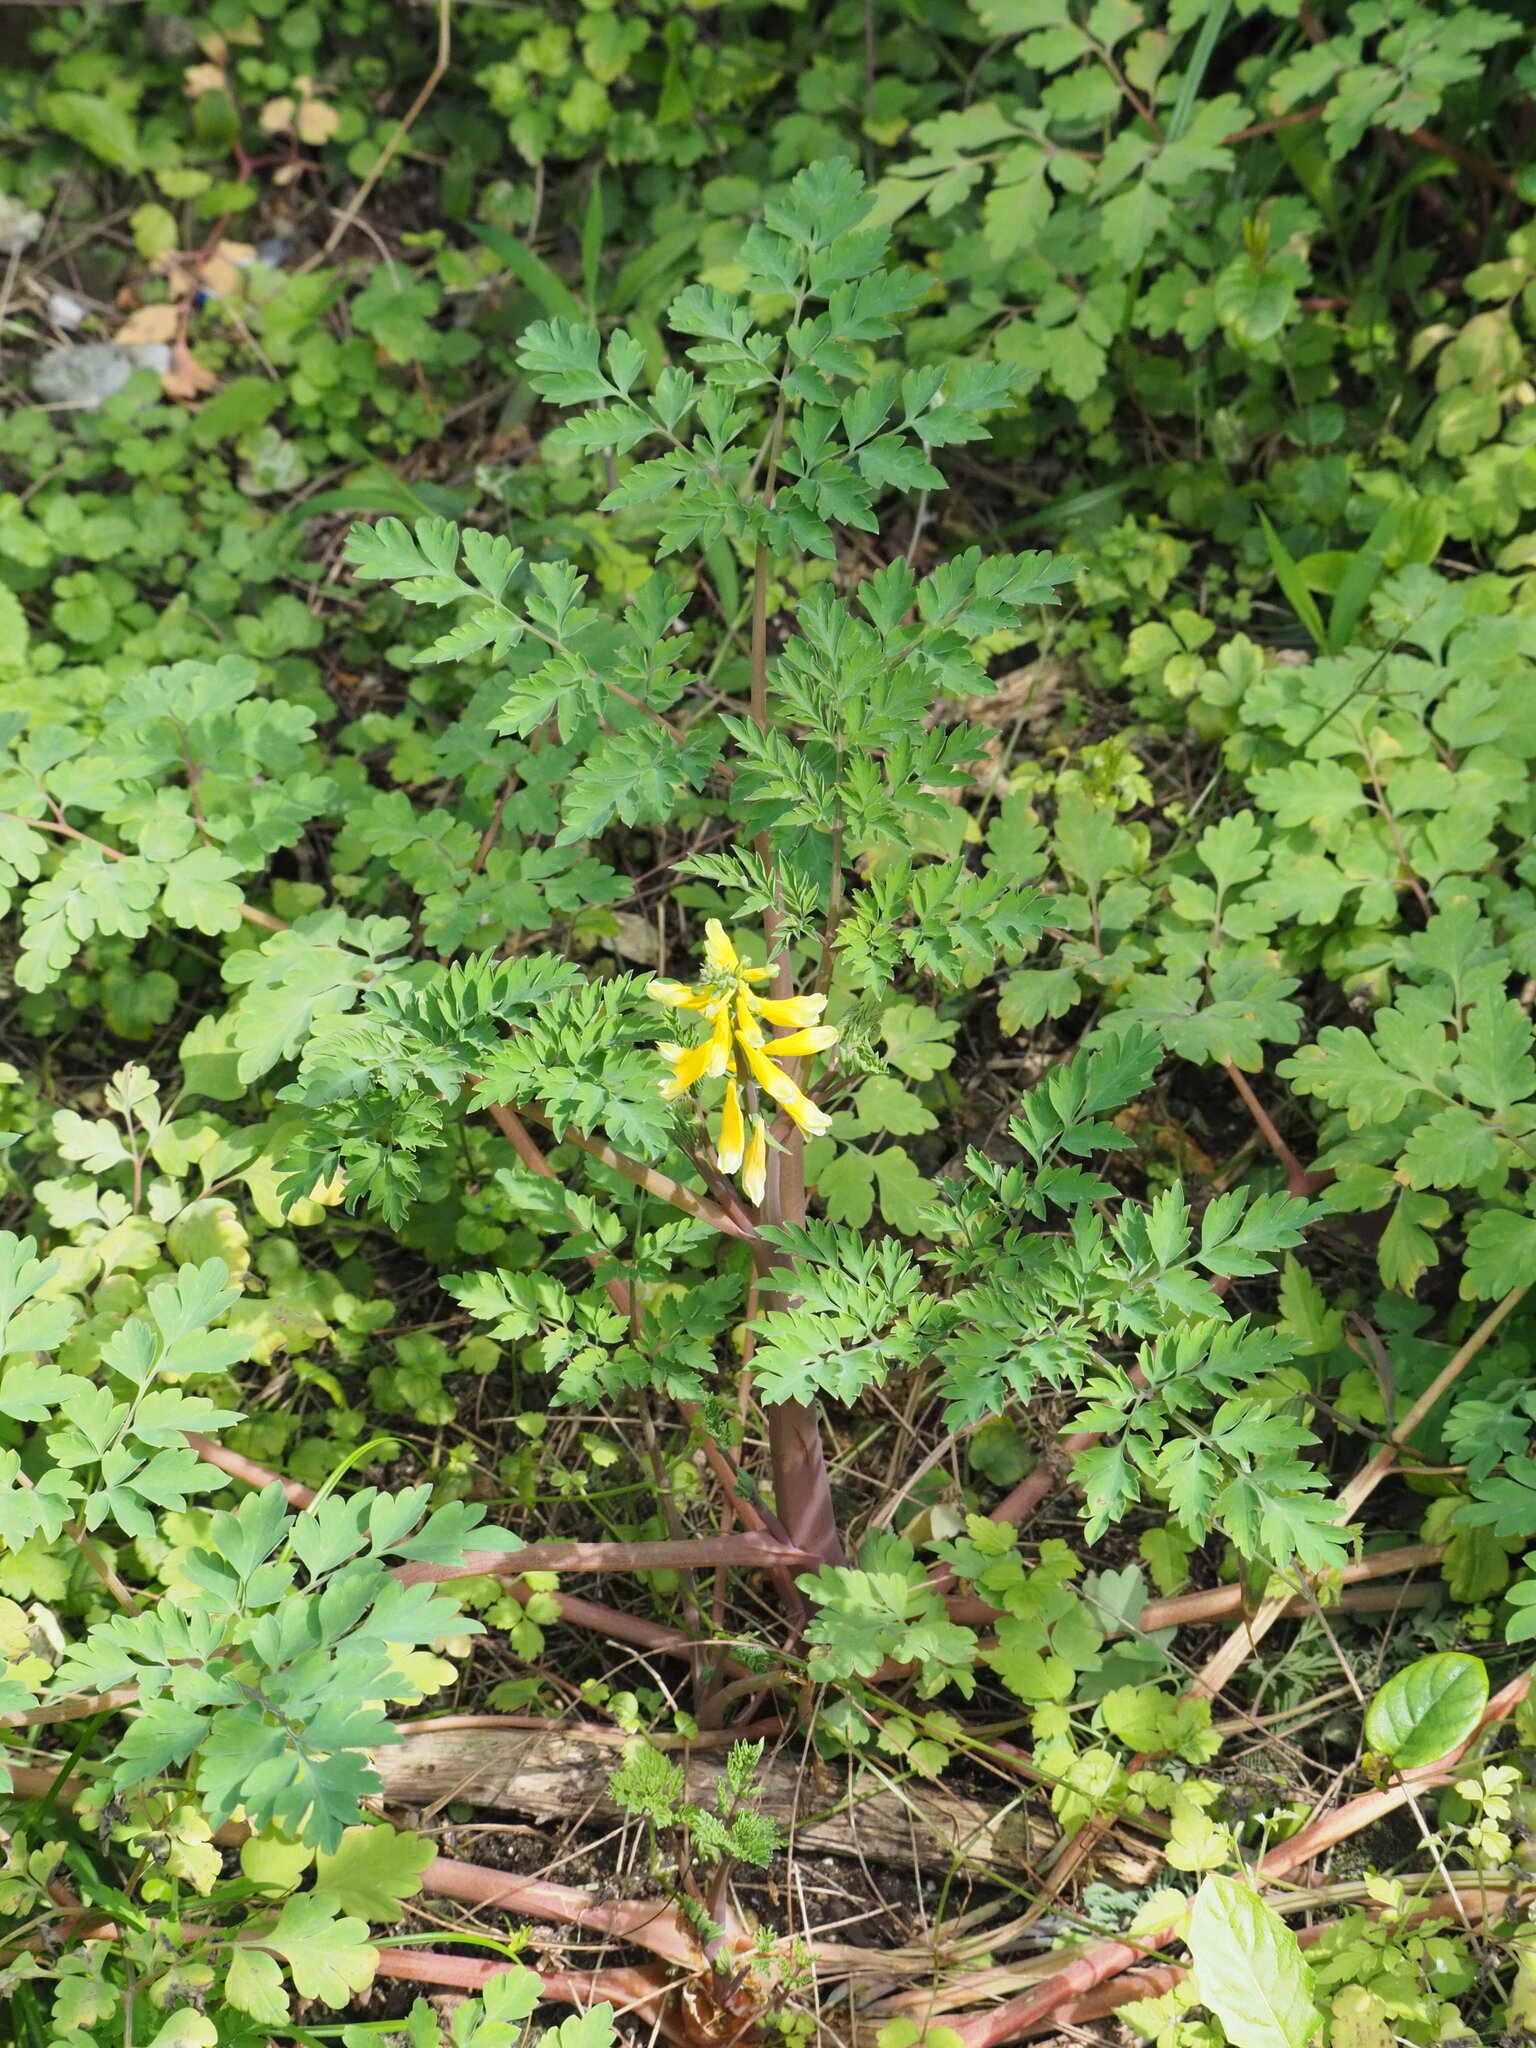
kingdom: Plantae
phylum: Tracheophyta
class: Magnoliopsida
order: Ranunculales
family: Papaveraceae
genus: Corydalis
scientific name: Corydalis balansae
